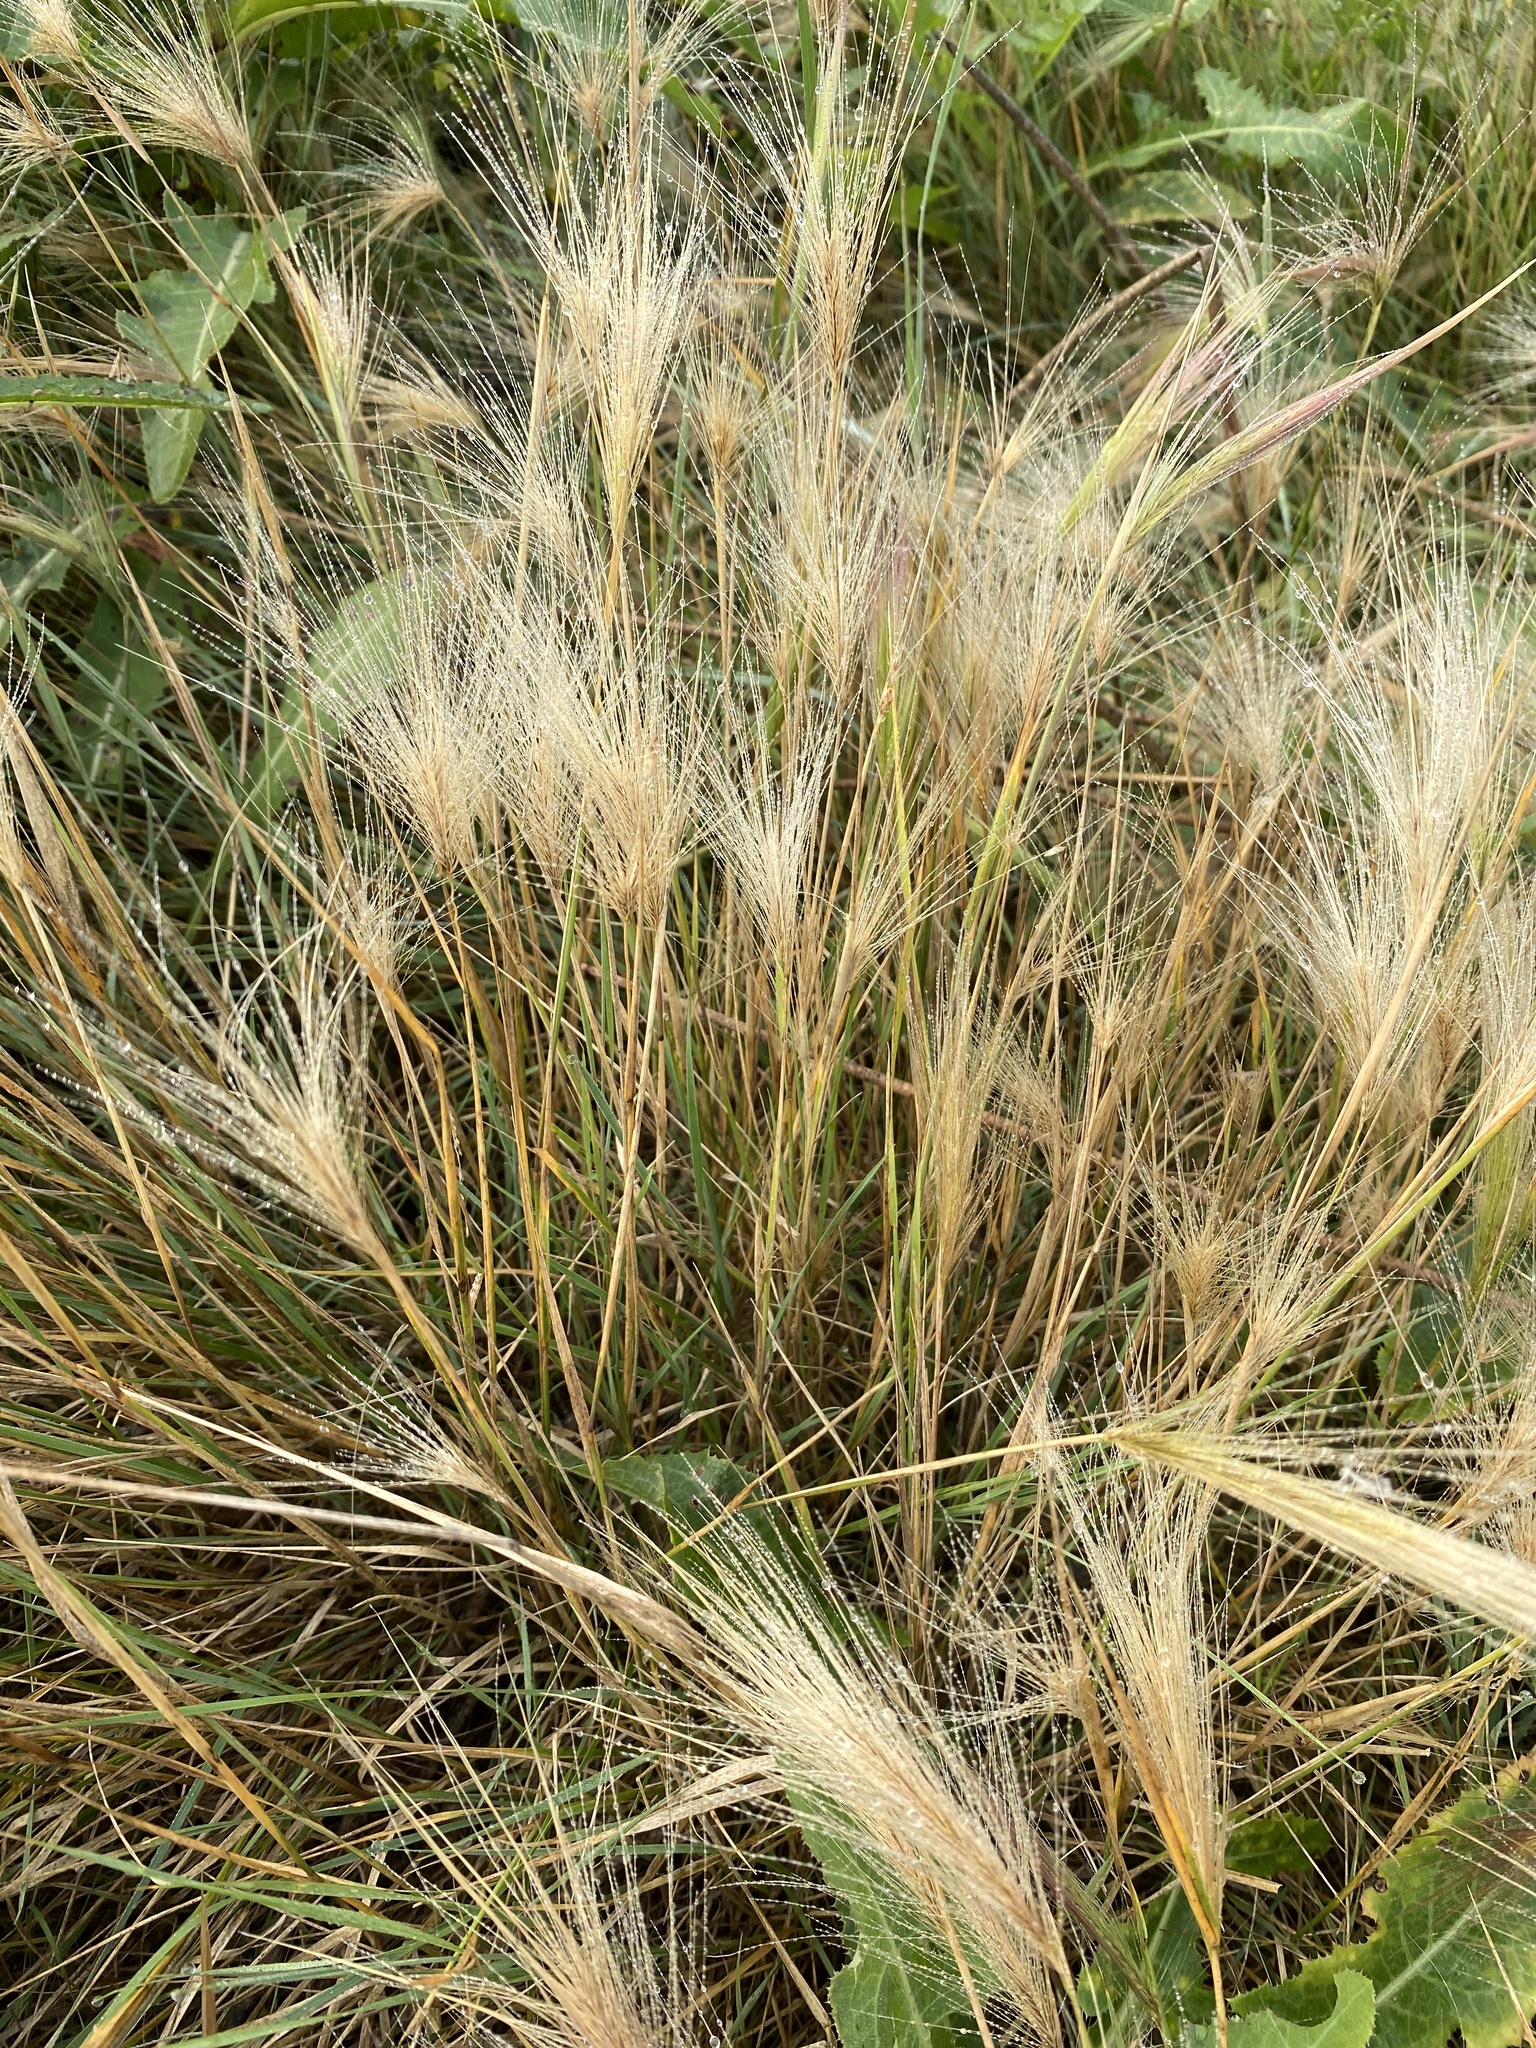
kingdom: Plantae
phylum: Tracheophyta
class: Liliopsida
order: Poales
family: Poaceae
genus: Hordeum
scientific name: Hordeum jubatum
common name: Foxtail barley
